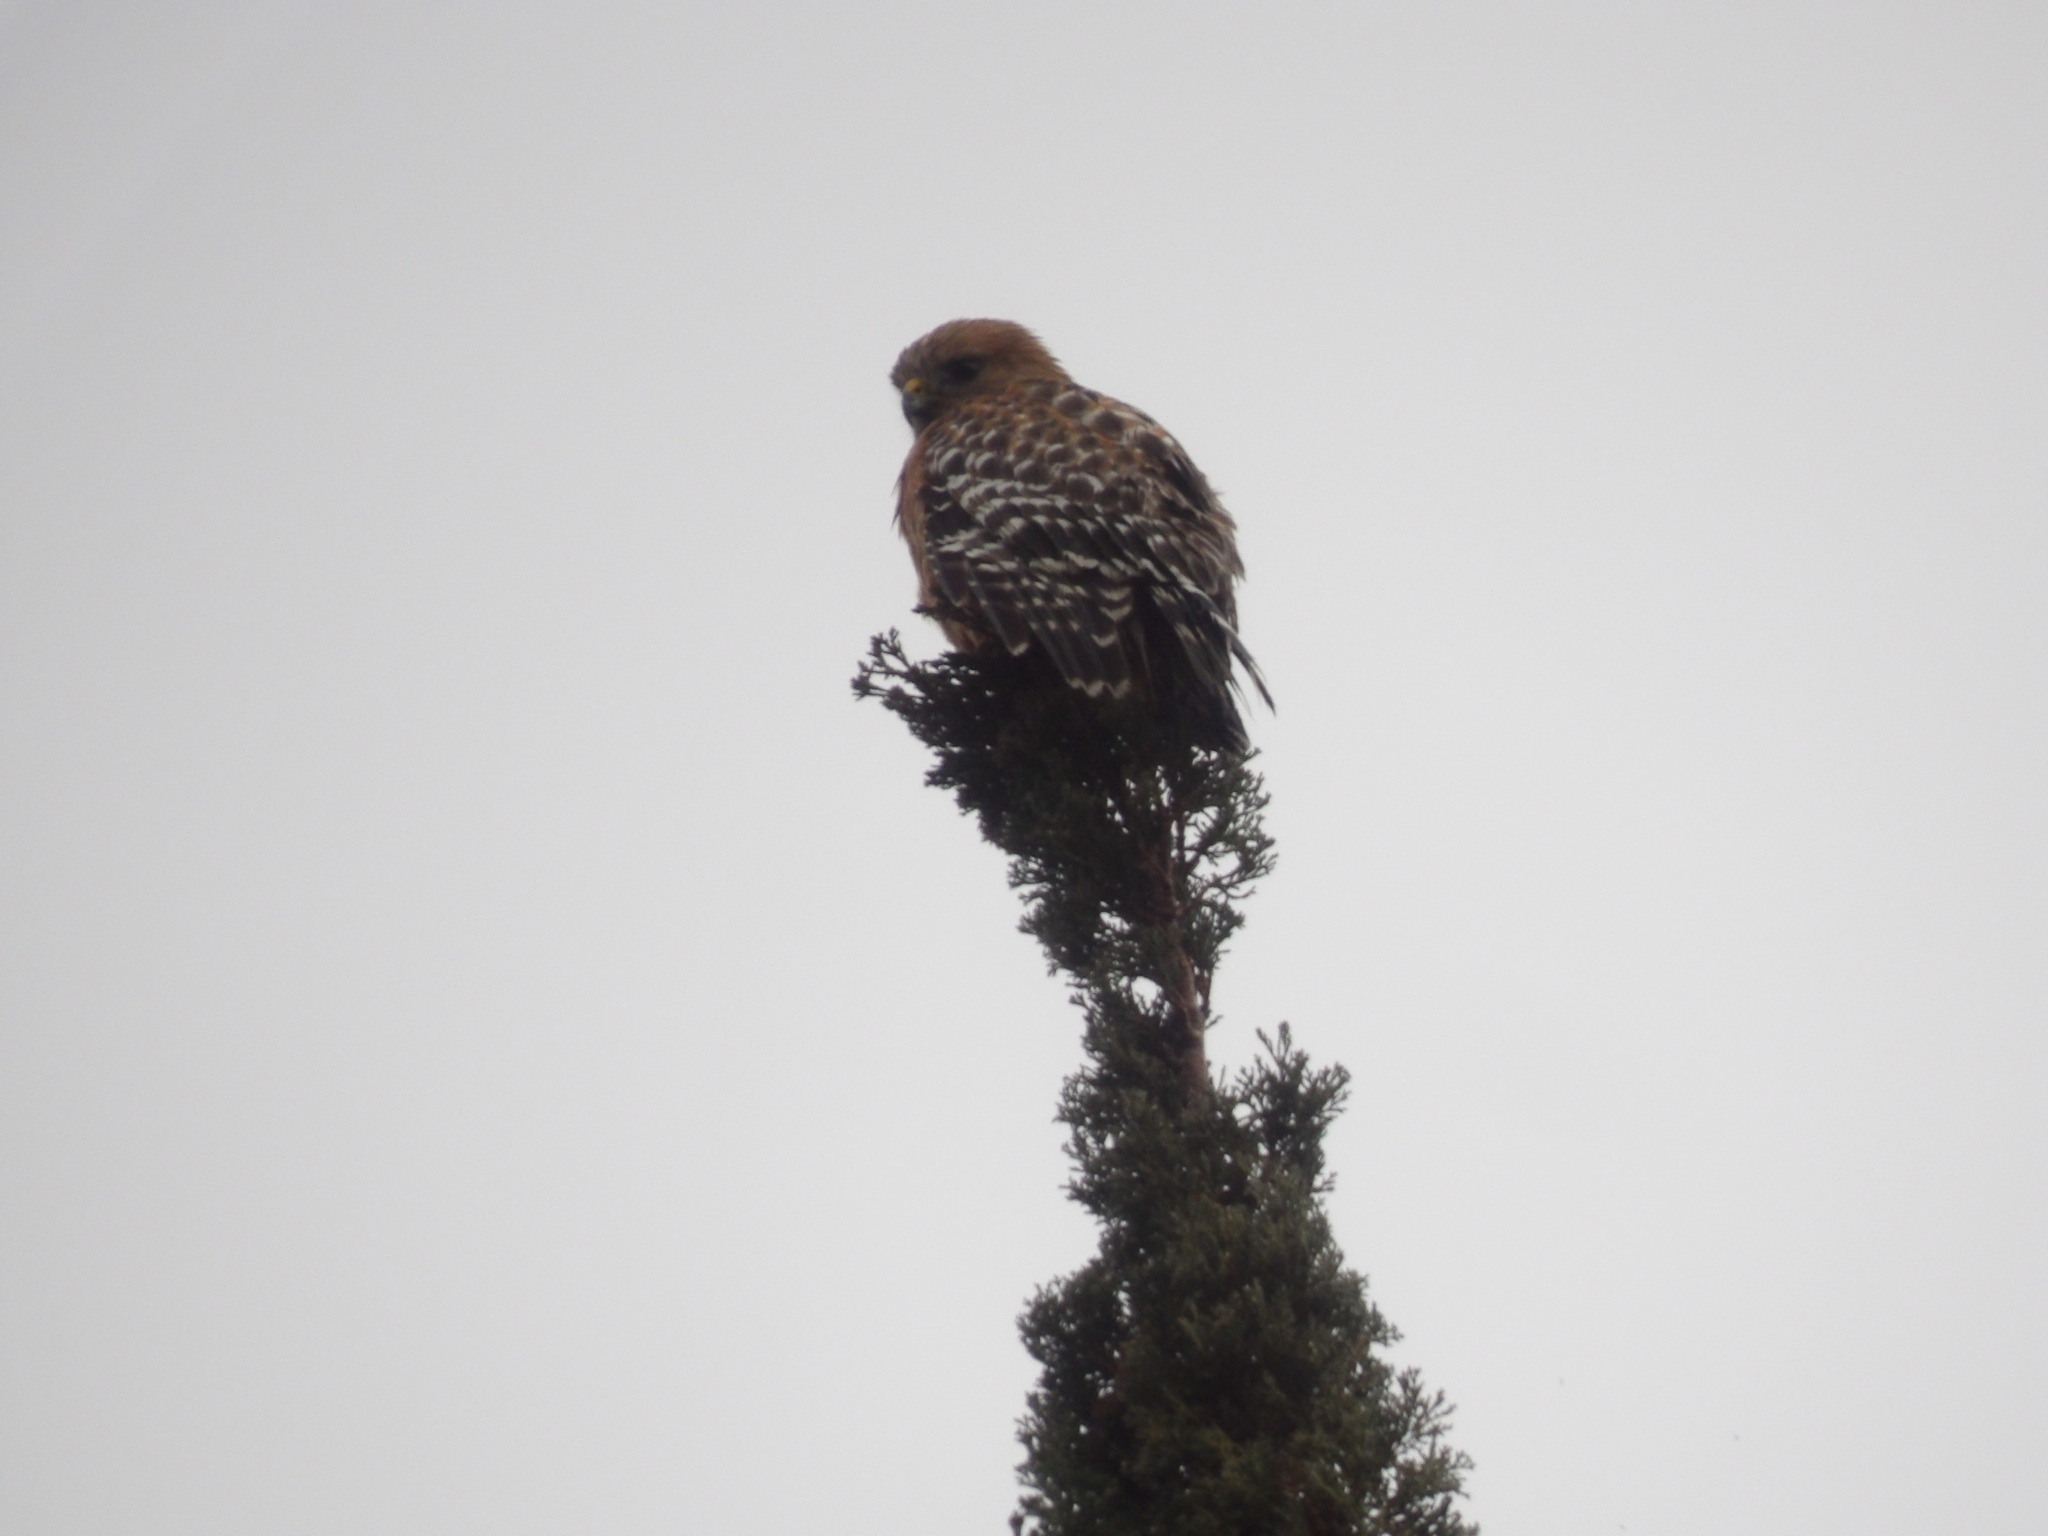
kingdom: Animalia
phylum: Chordata
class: Aves
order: Accipitriformes
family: Accipitridae
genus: Buteo
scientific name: Buteo lineatus
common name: Red-shouldered hawk
